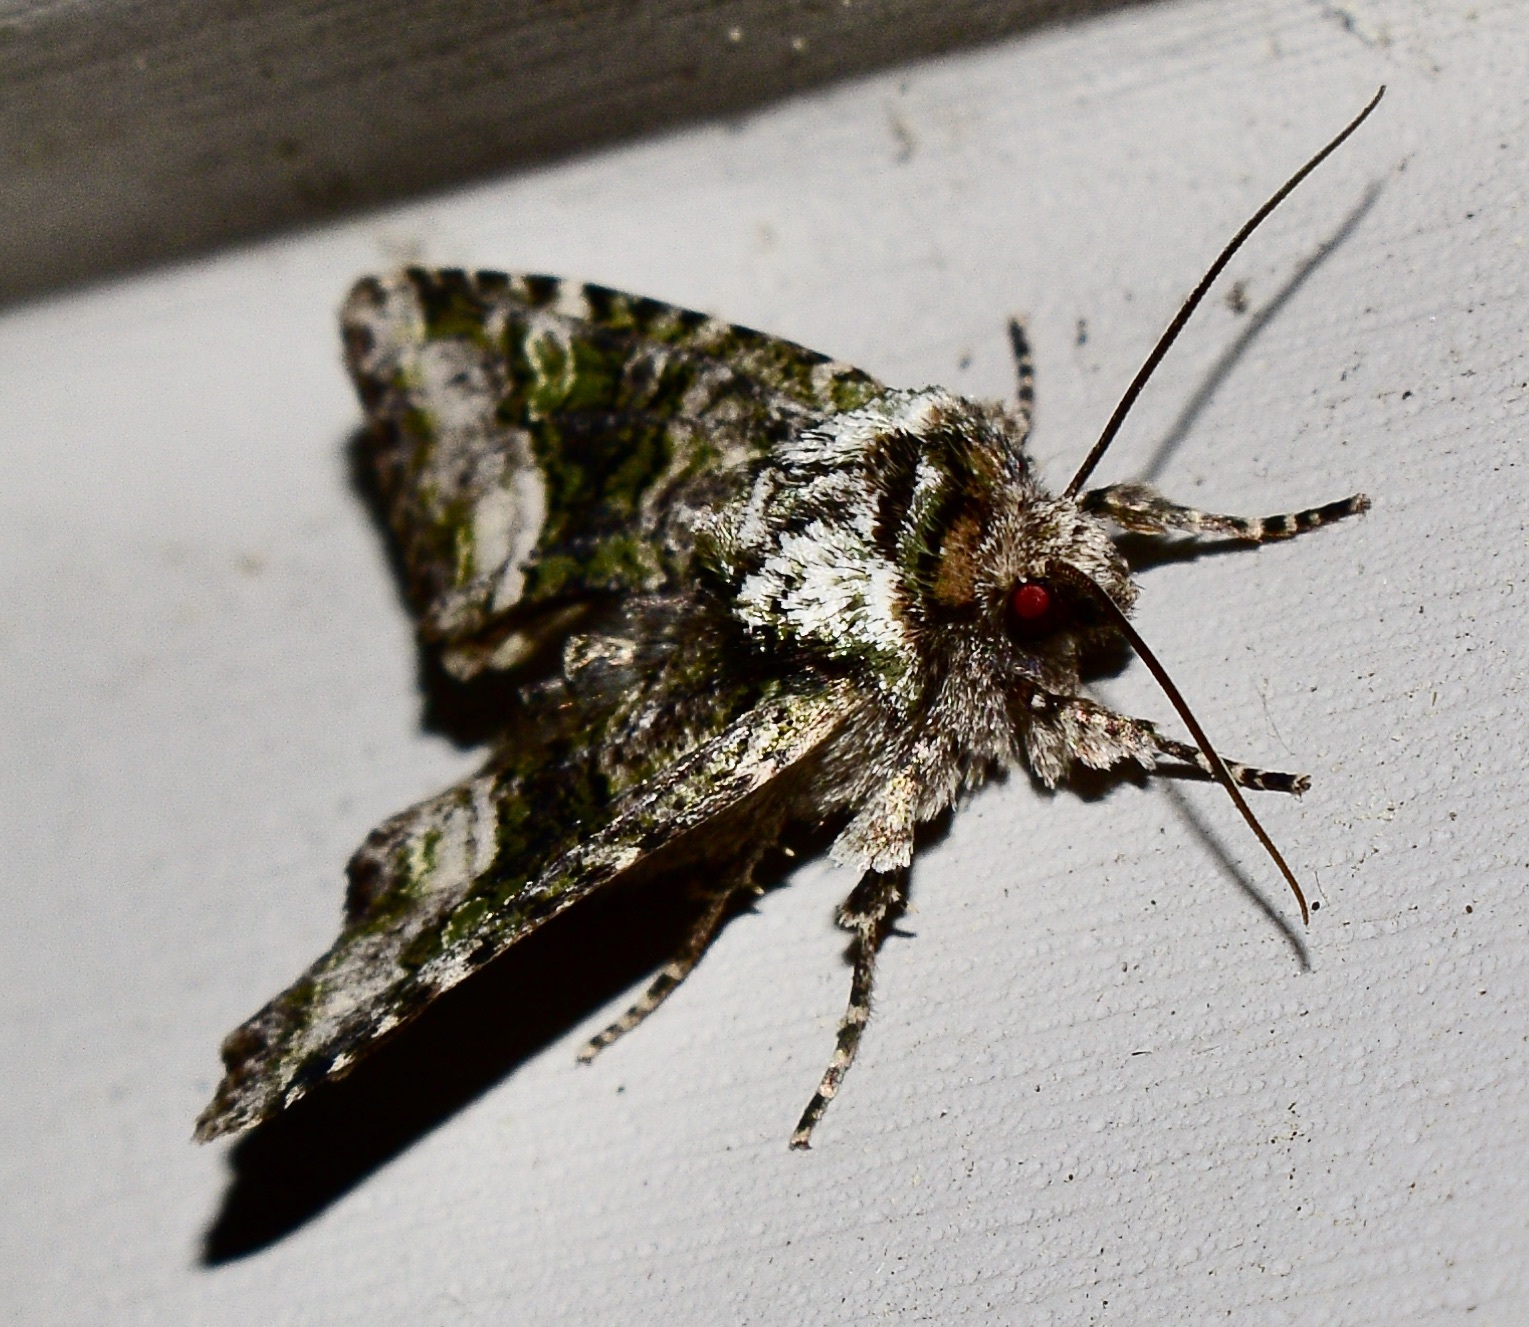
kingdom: Animalia
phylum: Arthropoda
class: Insecta
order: Lepidoptera
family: Noctuidae
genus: Lacinipolia
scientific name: Lacinipolia renigera
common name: Kidney-spotted minor
